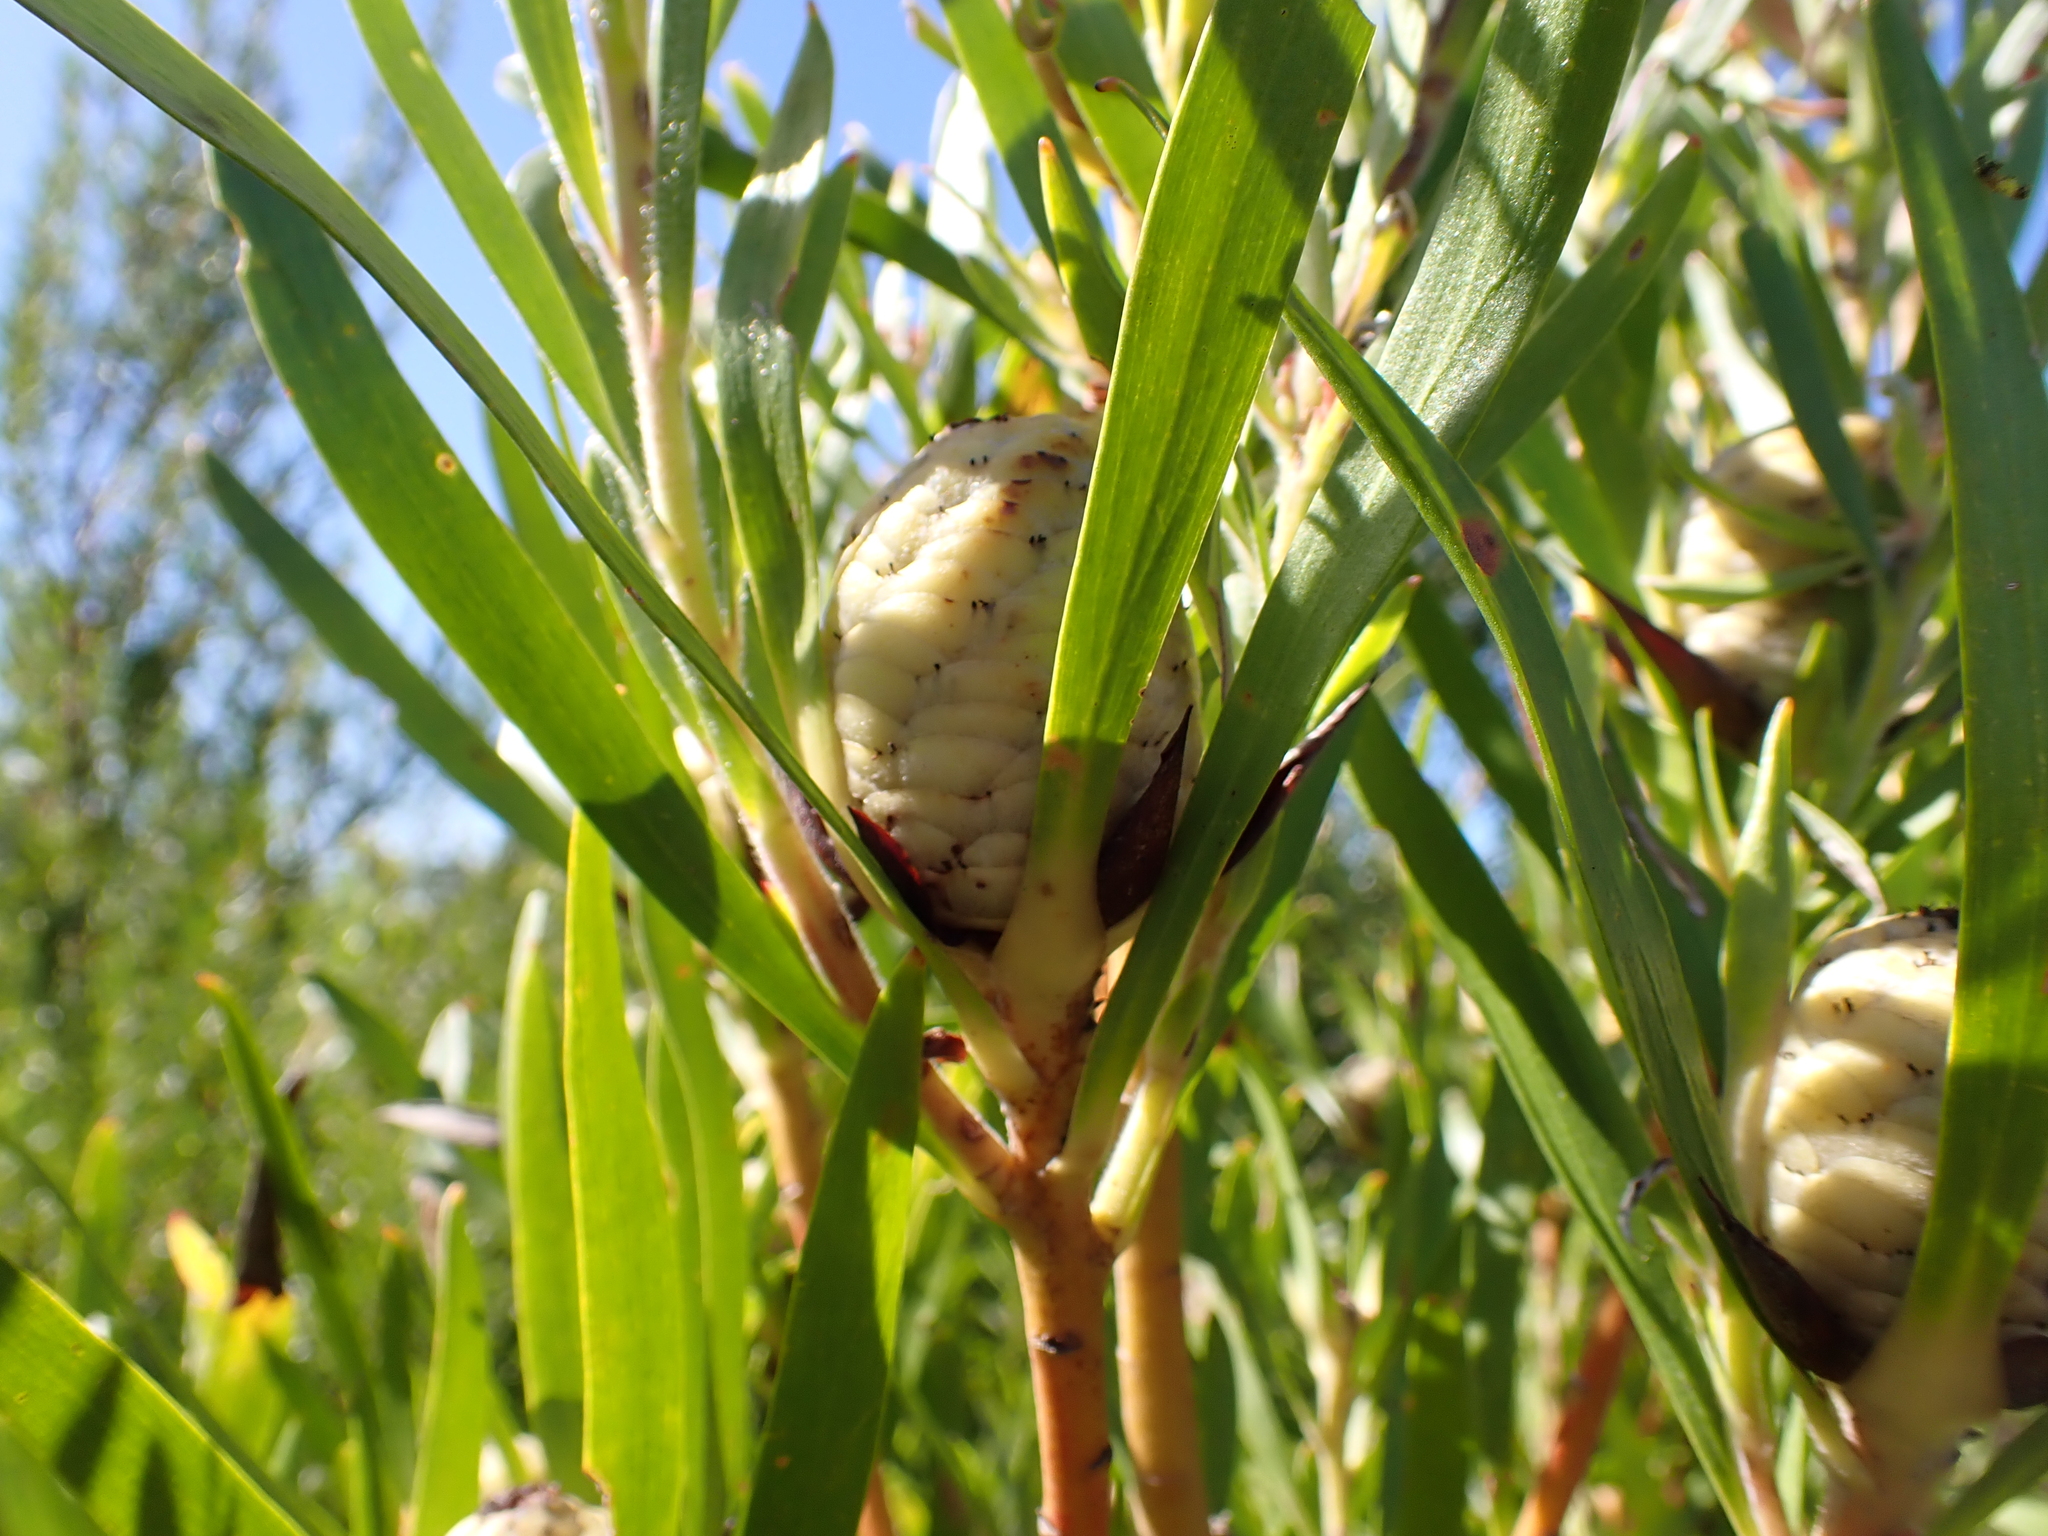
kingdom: Plantae
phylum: Tracheophyta
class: Magnoliopsida
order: Proteales
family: Proteaceae
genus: Leucadendron
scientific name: Leucadendron eucalyptifolium
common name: Gum-leaved conebush
